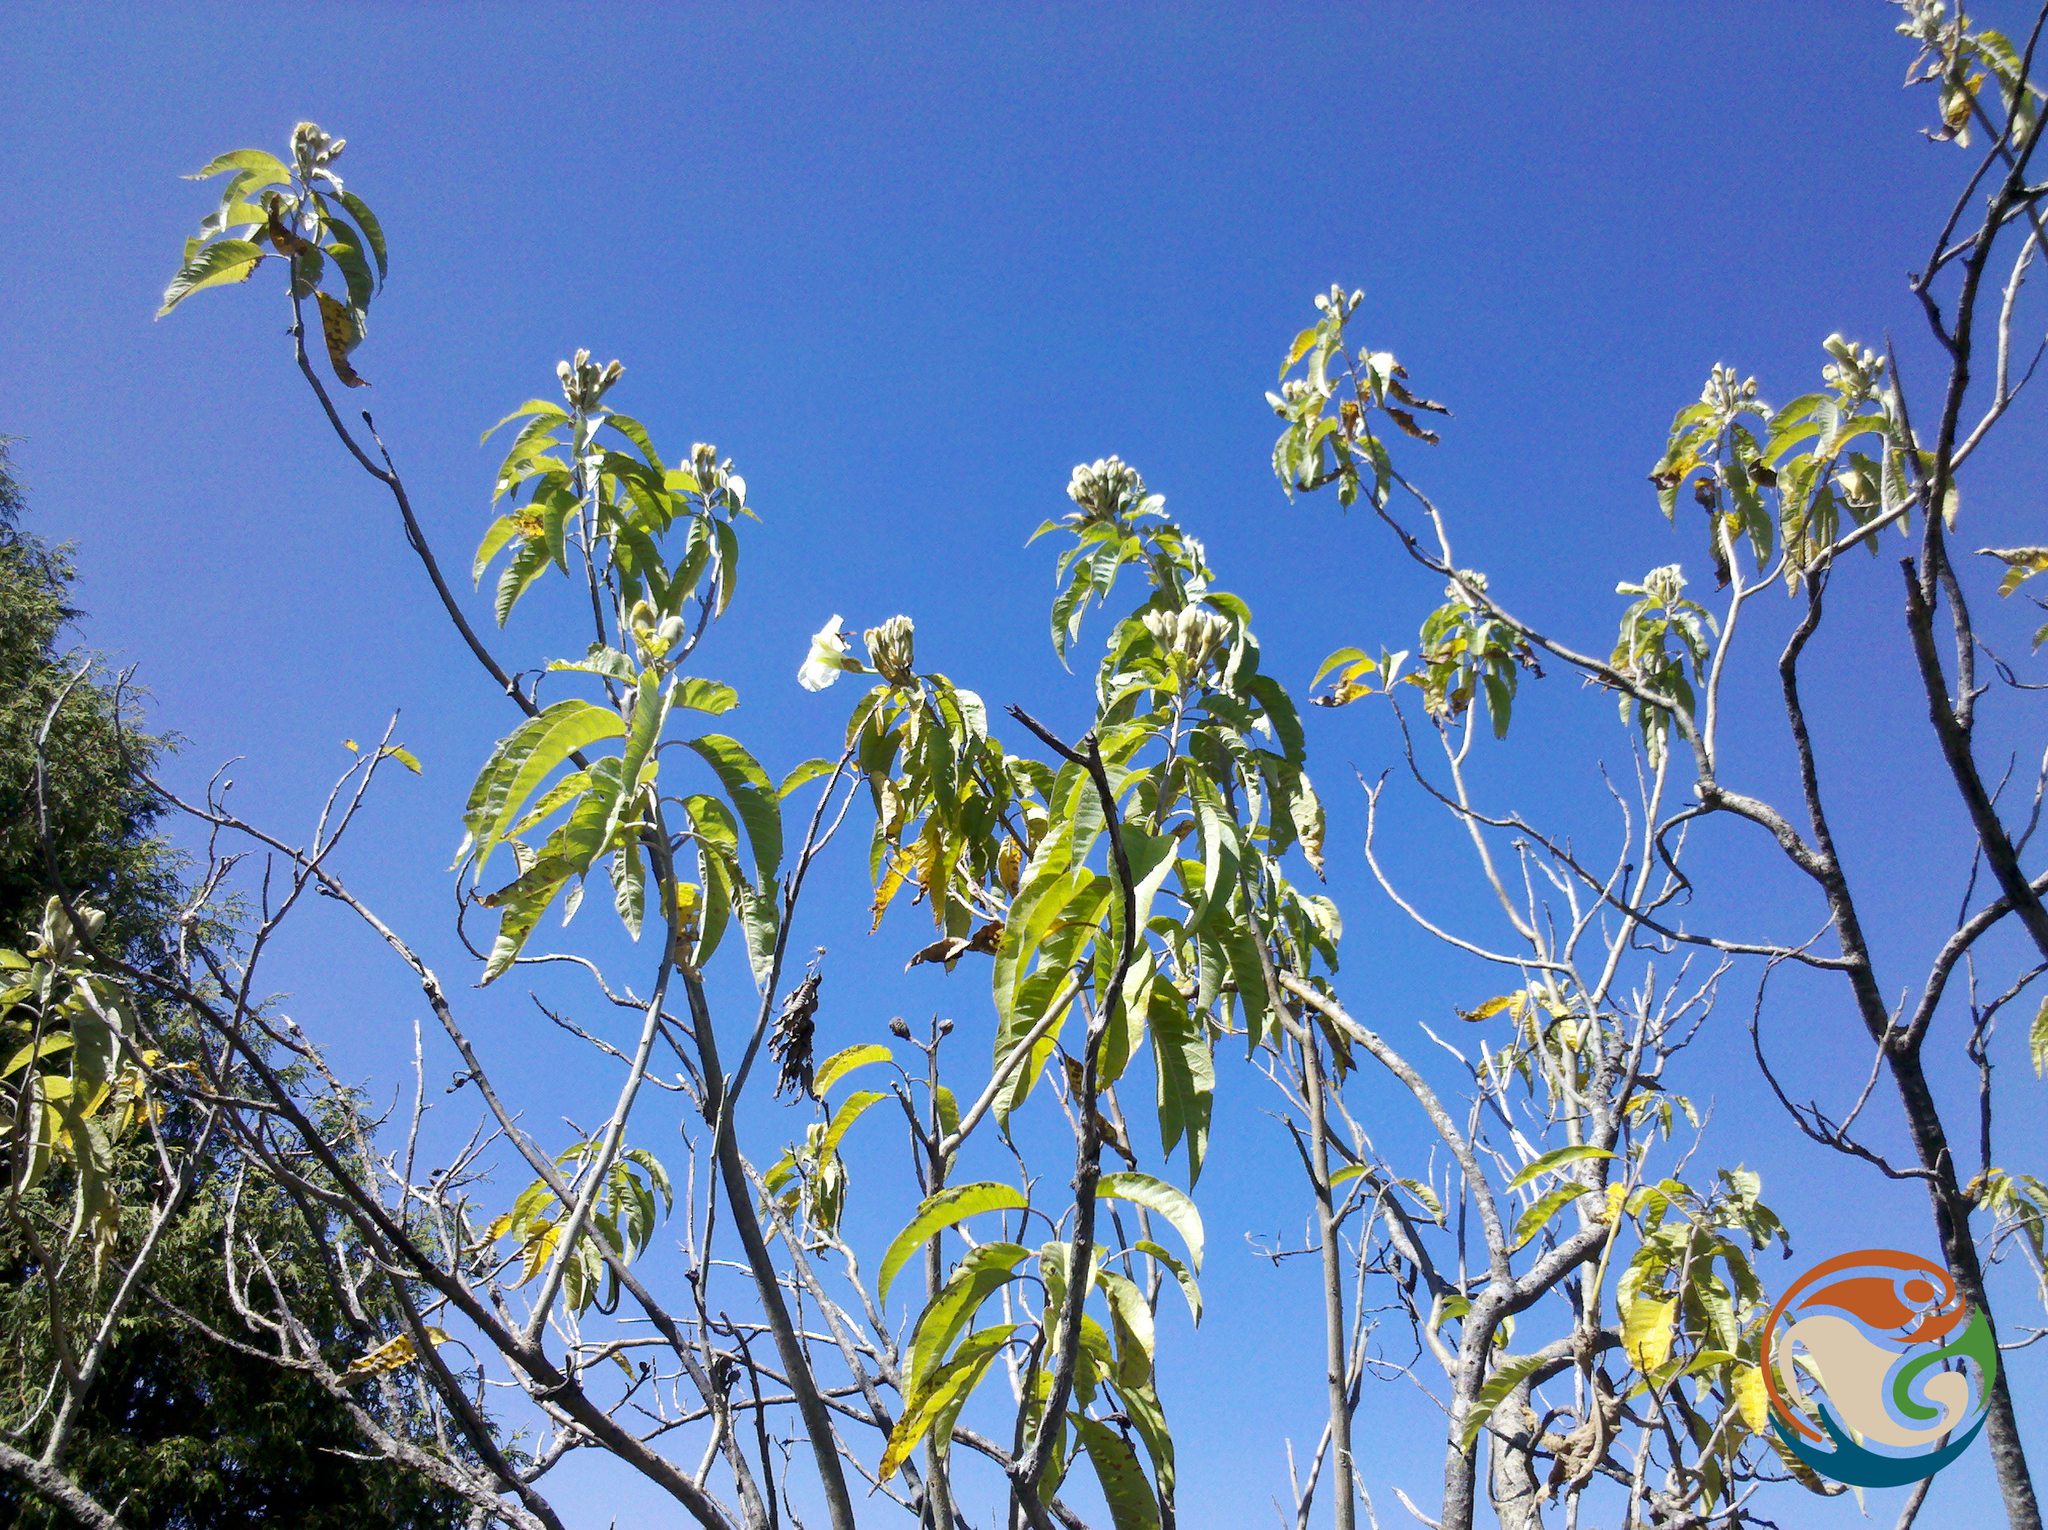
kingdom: Plantae
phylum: Tracheophyta
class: Magnoliopsida
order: Solanales
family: Convolvulaceae
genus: Ipomoea
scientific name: Ipomoea murucoides
